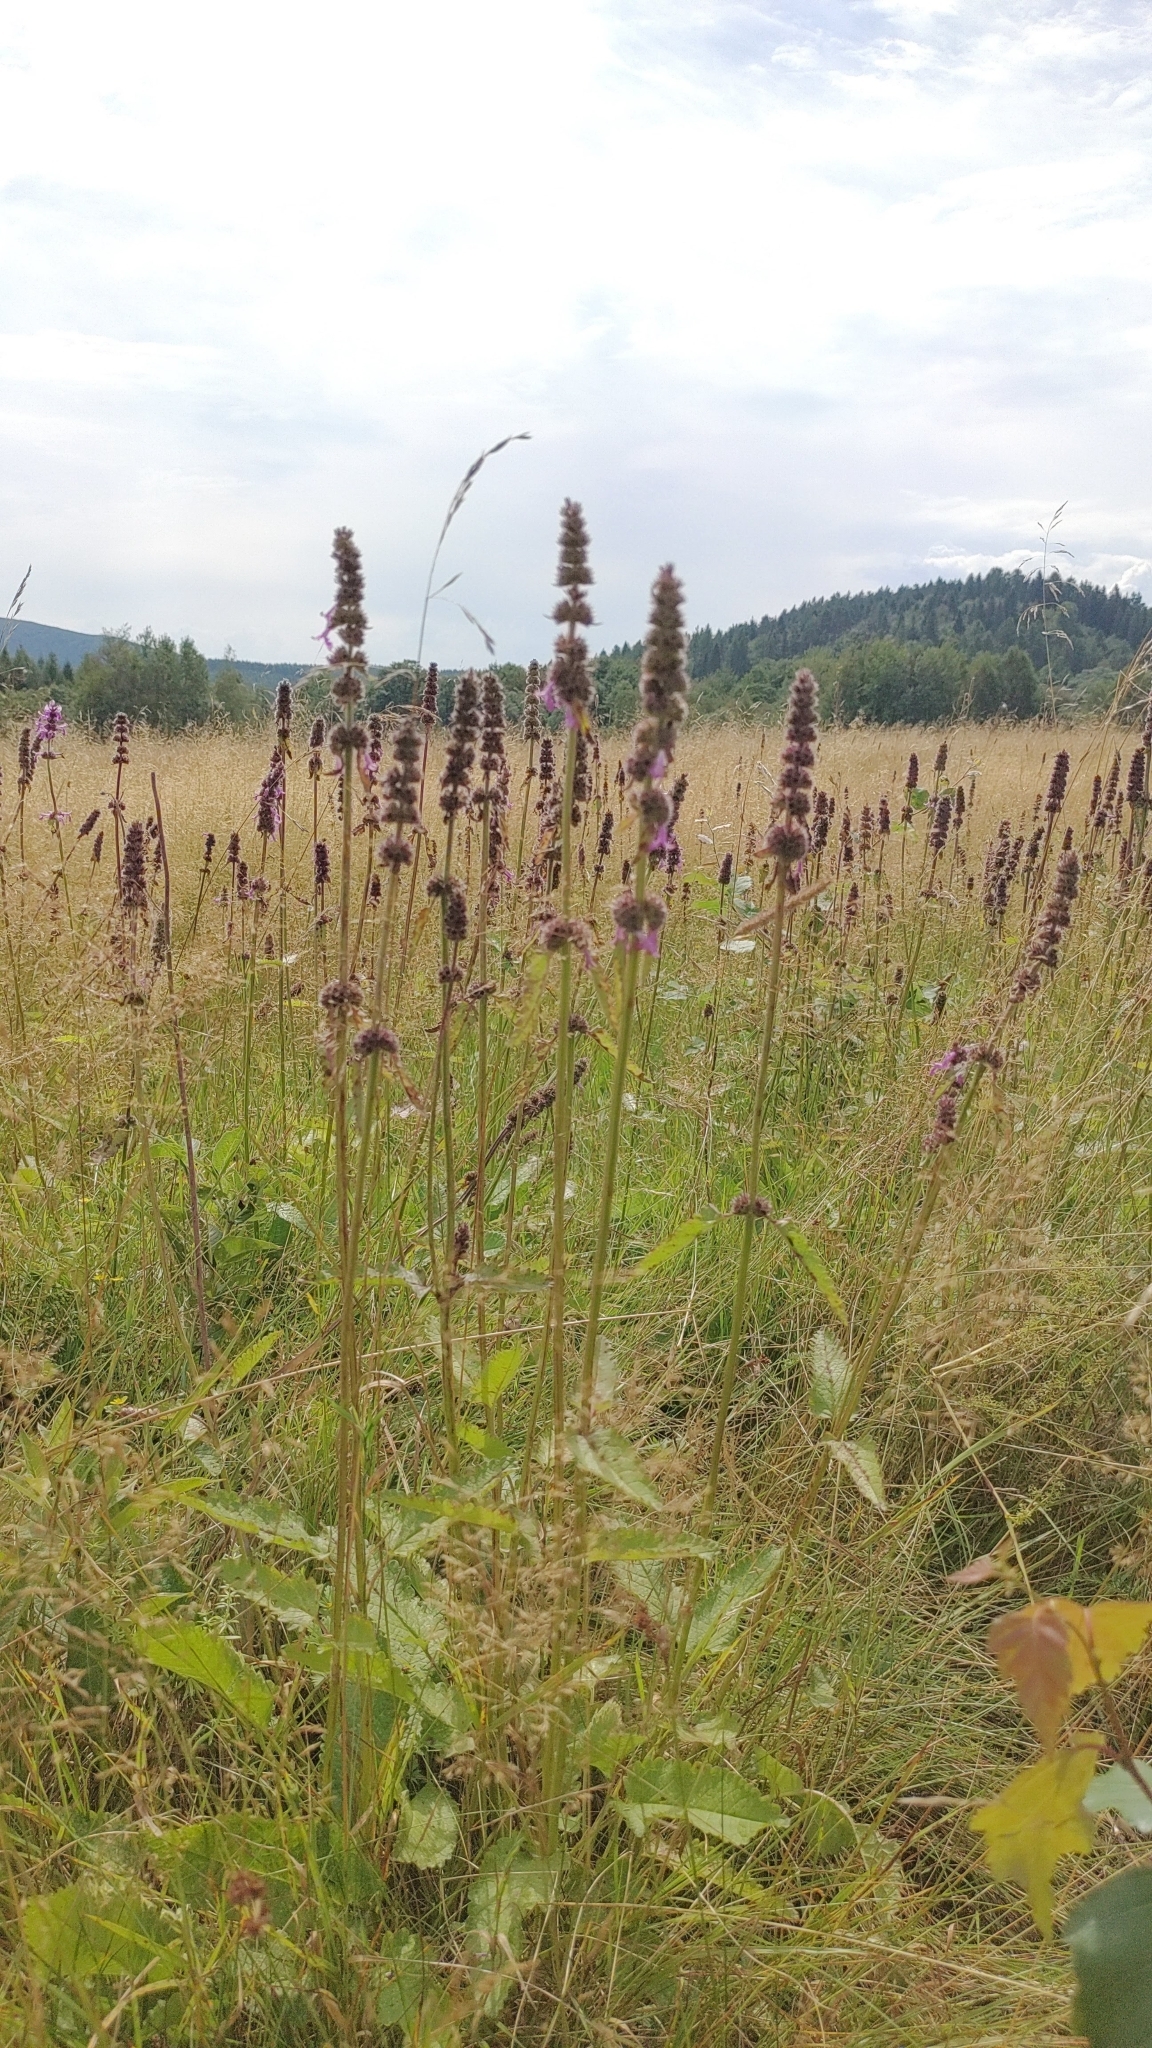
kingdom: Plantae
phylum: Tracheophyta
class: Magnoliopsida
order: Lamiales
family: Lamiaceae
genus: Betonica
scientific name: Betonica officinalis
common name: Bishop's-wort
